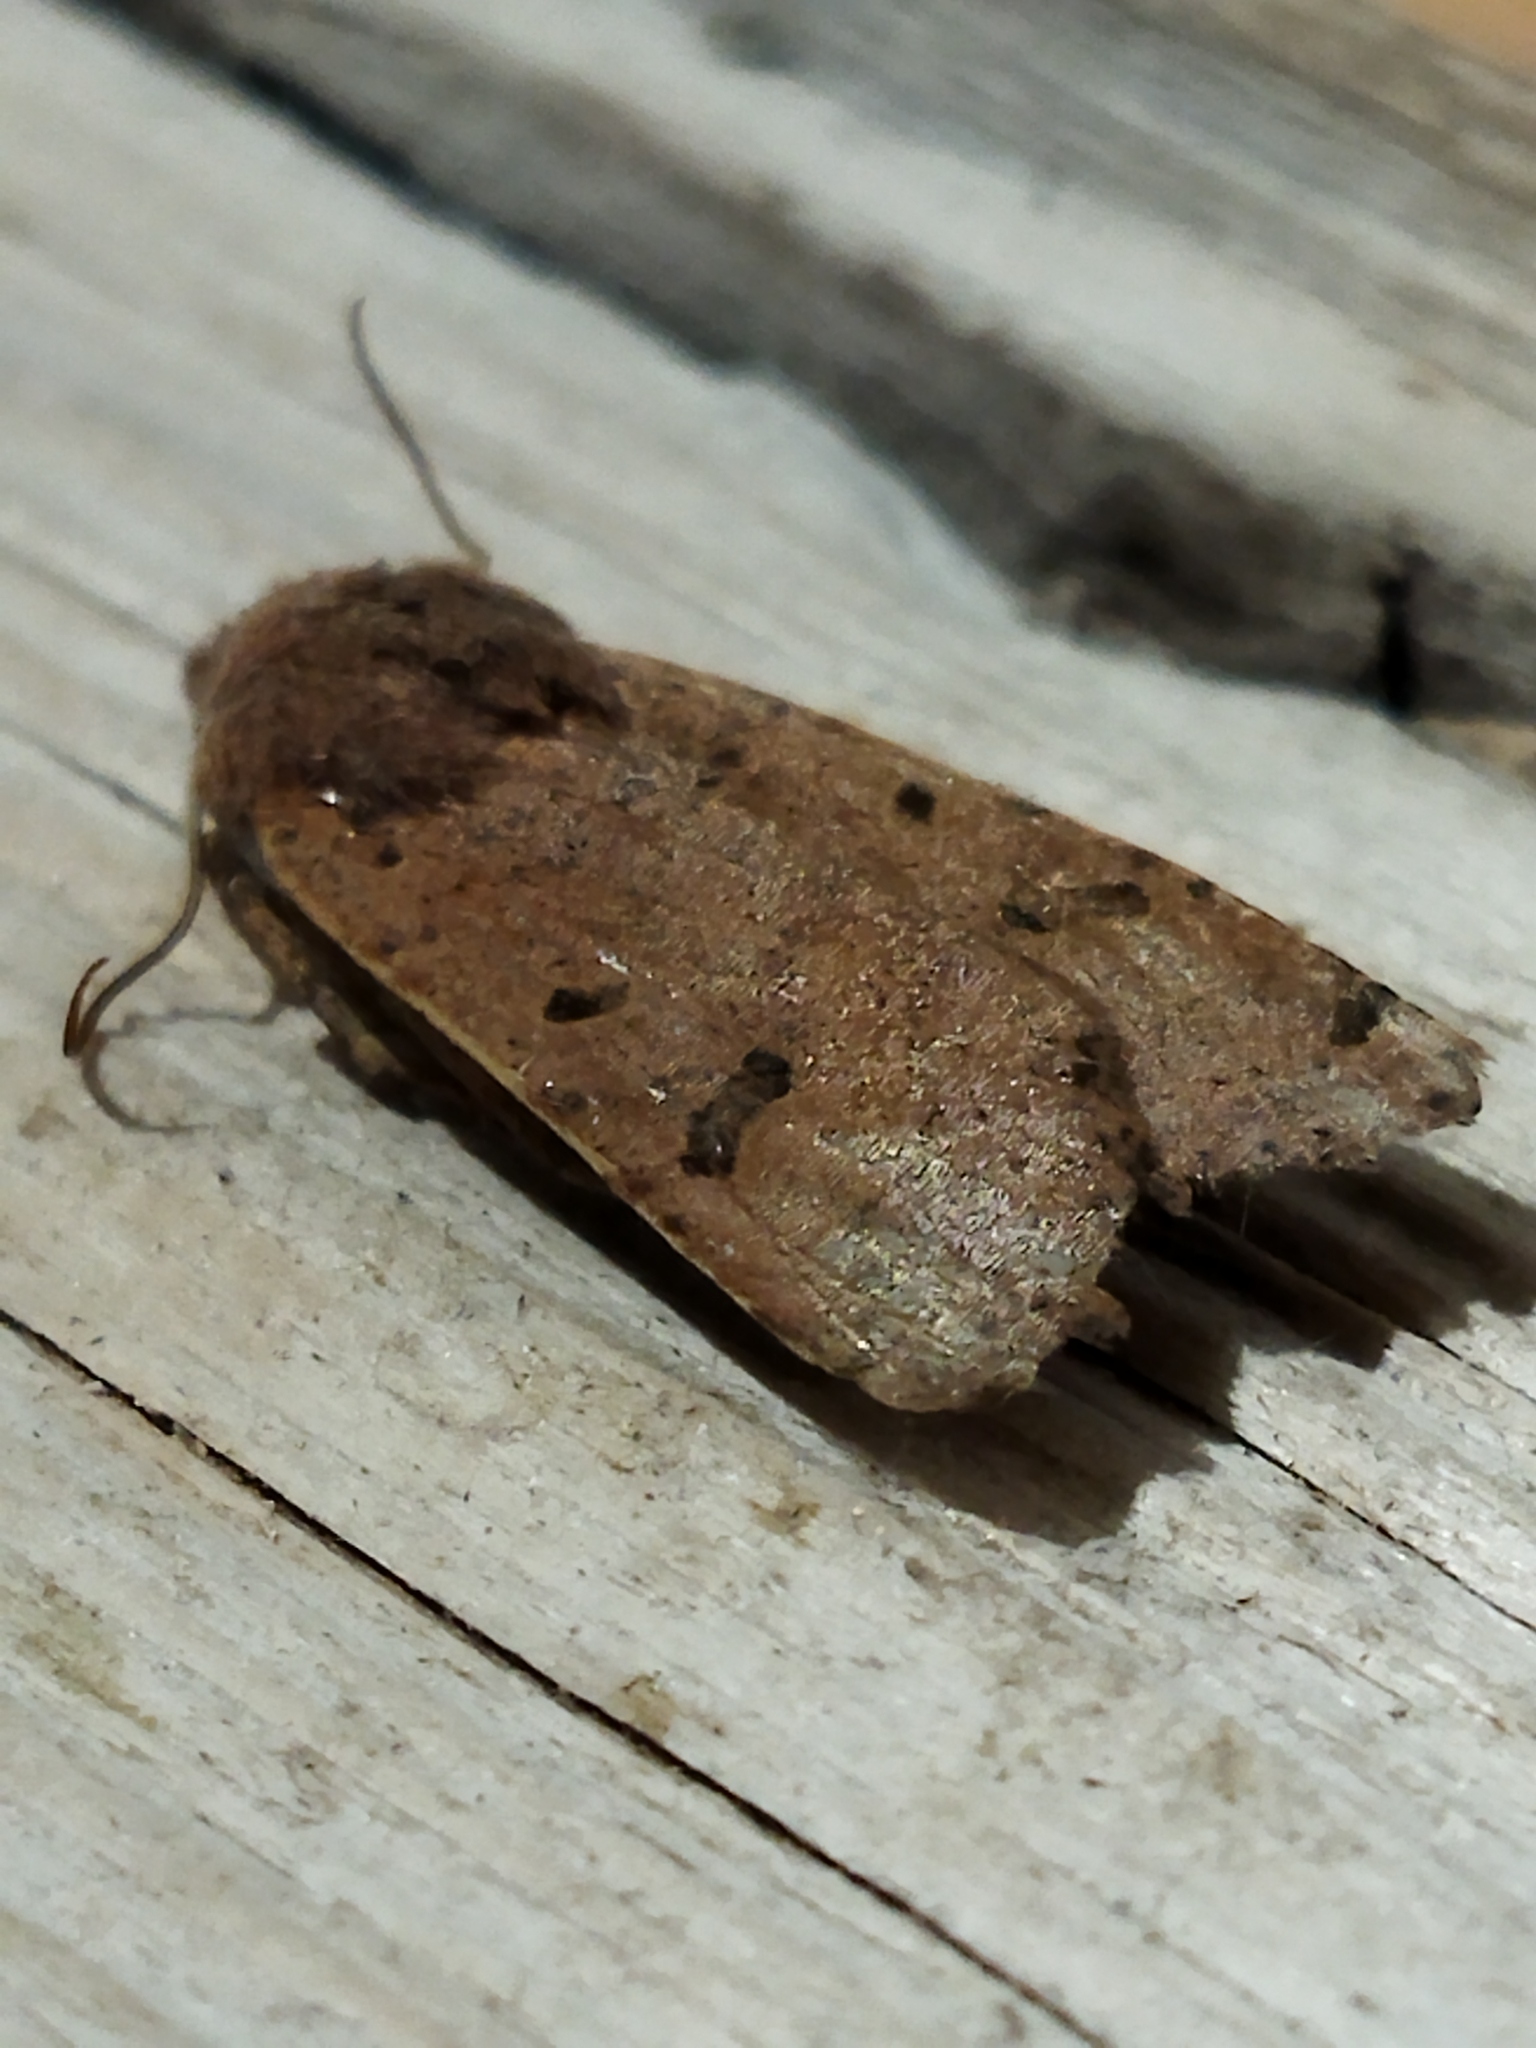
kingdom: Animalia
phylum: Arthropoda
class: Insecta
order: Lepidoptera
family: Noctuidae
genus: Agrochola
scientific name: Agrochola lychnidis
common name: Beaded chestnut
